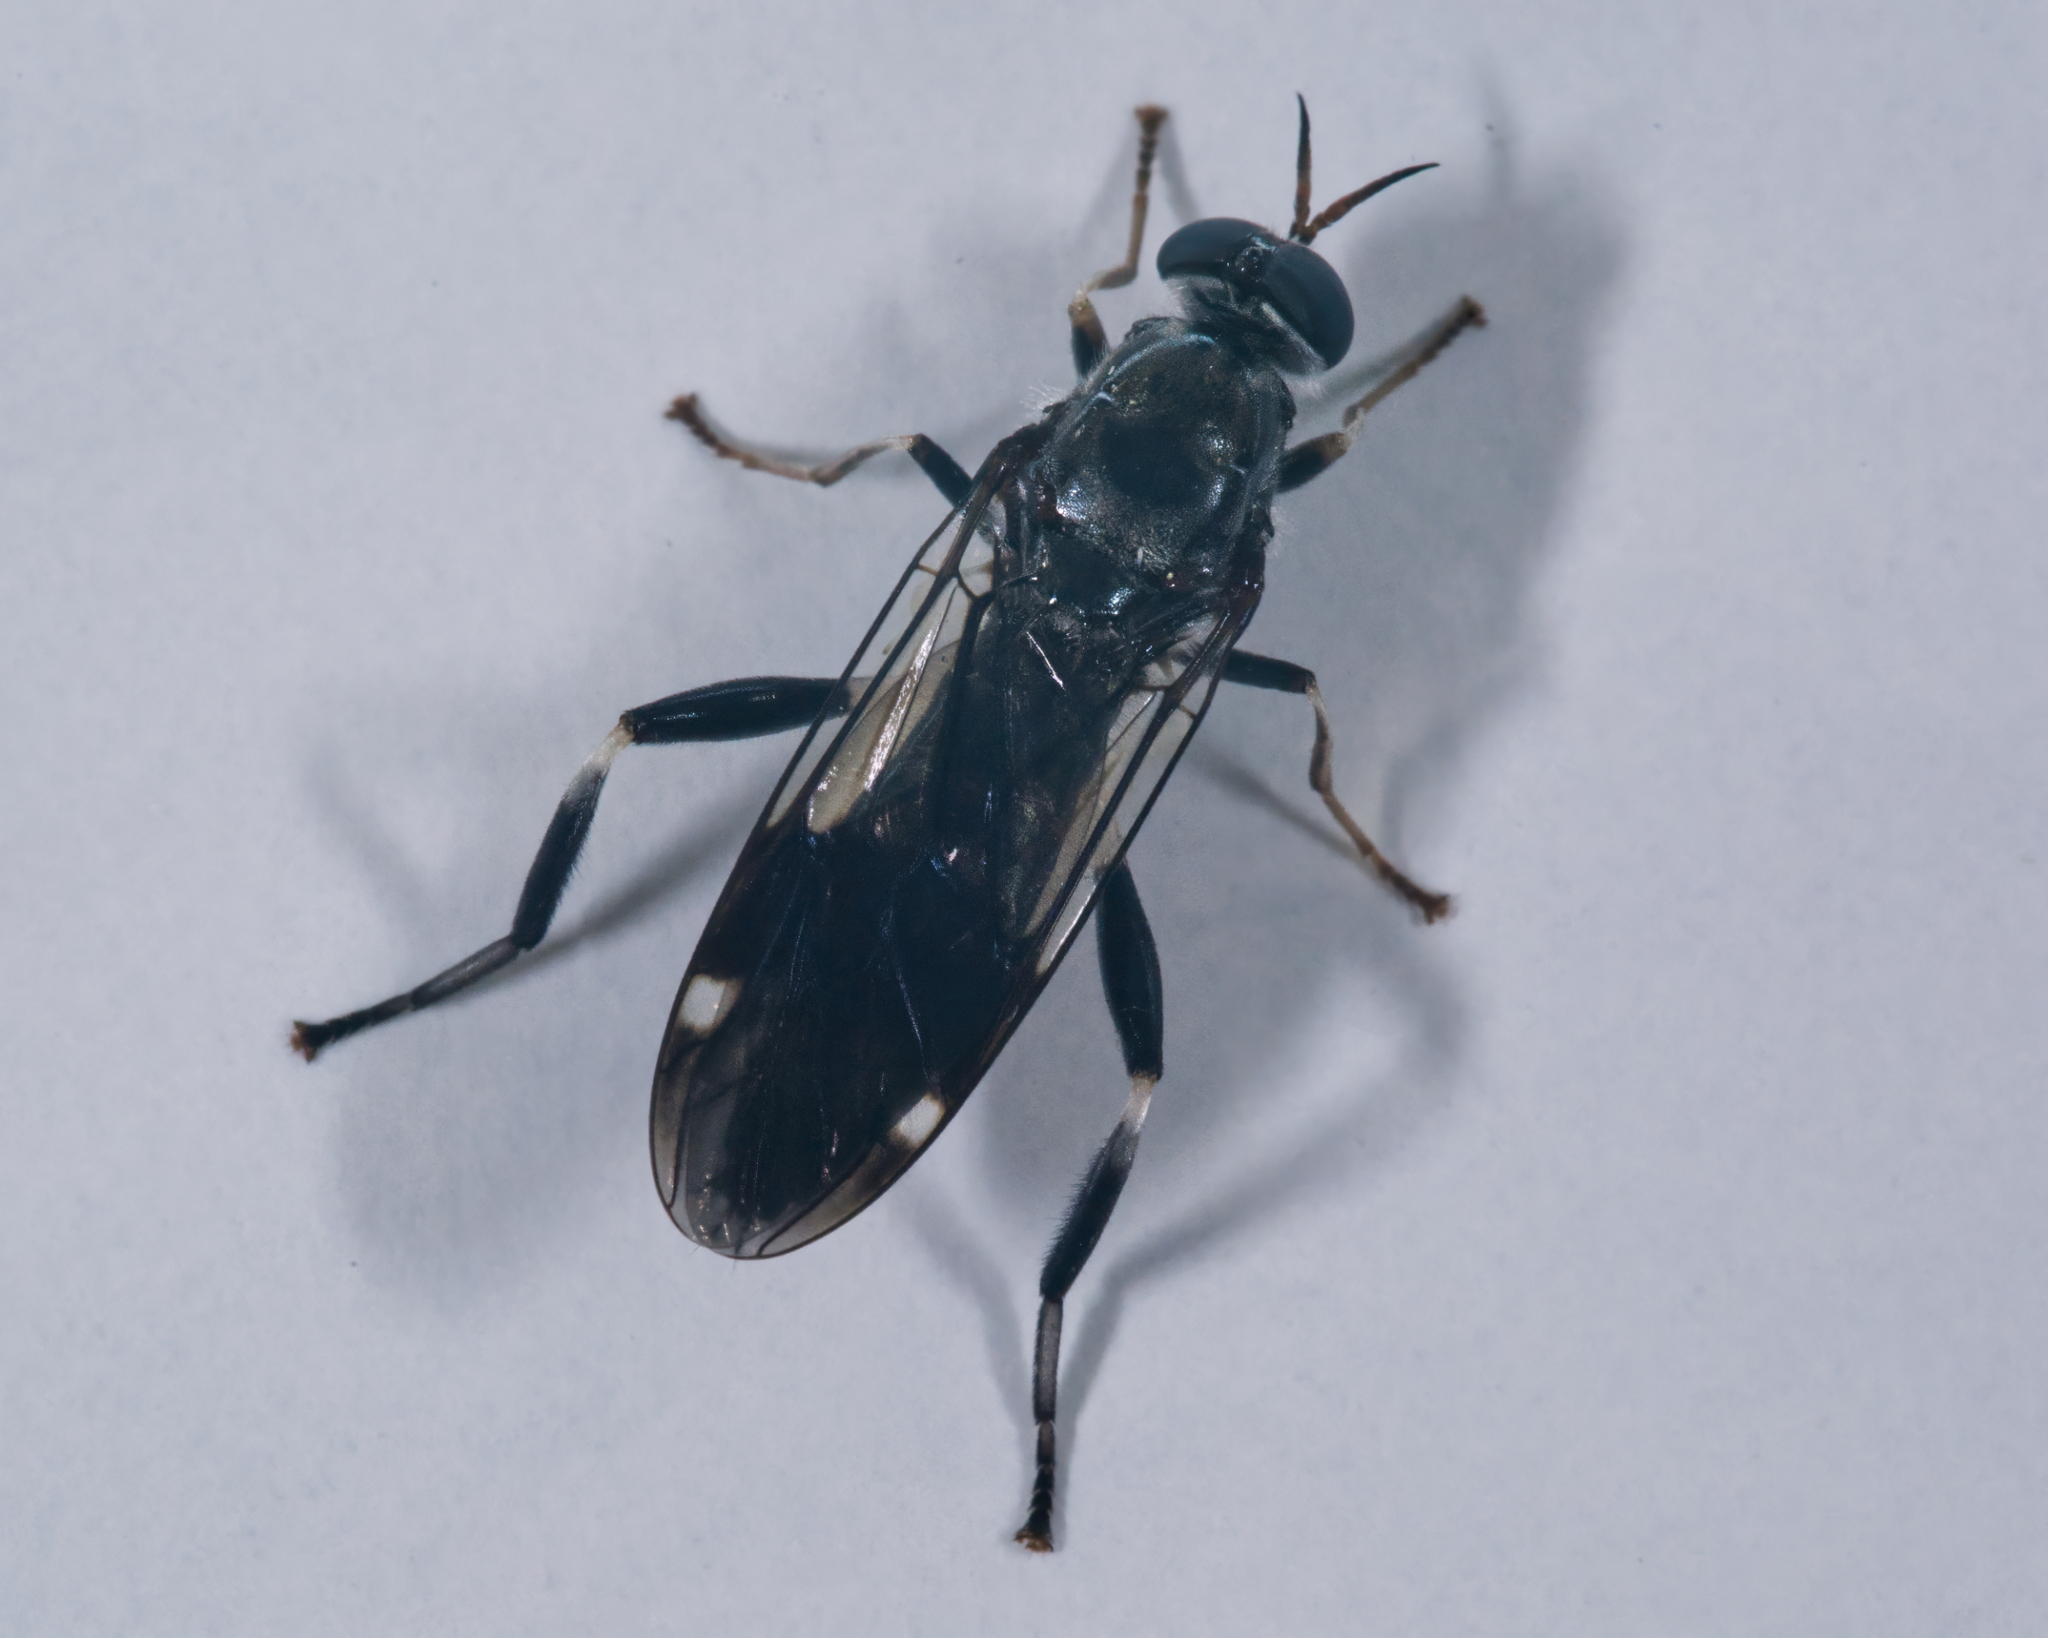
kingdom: Animalia
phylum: Arthropoda
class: Insecta
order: Diptera
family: Stratiomyidae
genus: Exaireta
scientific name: Exaireta spinigera
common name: Blue soldier fly
